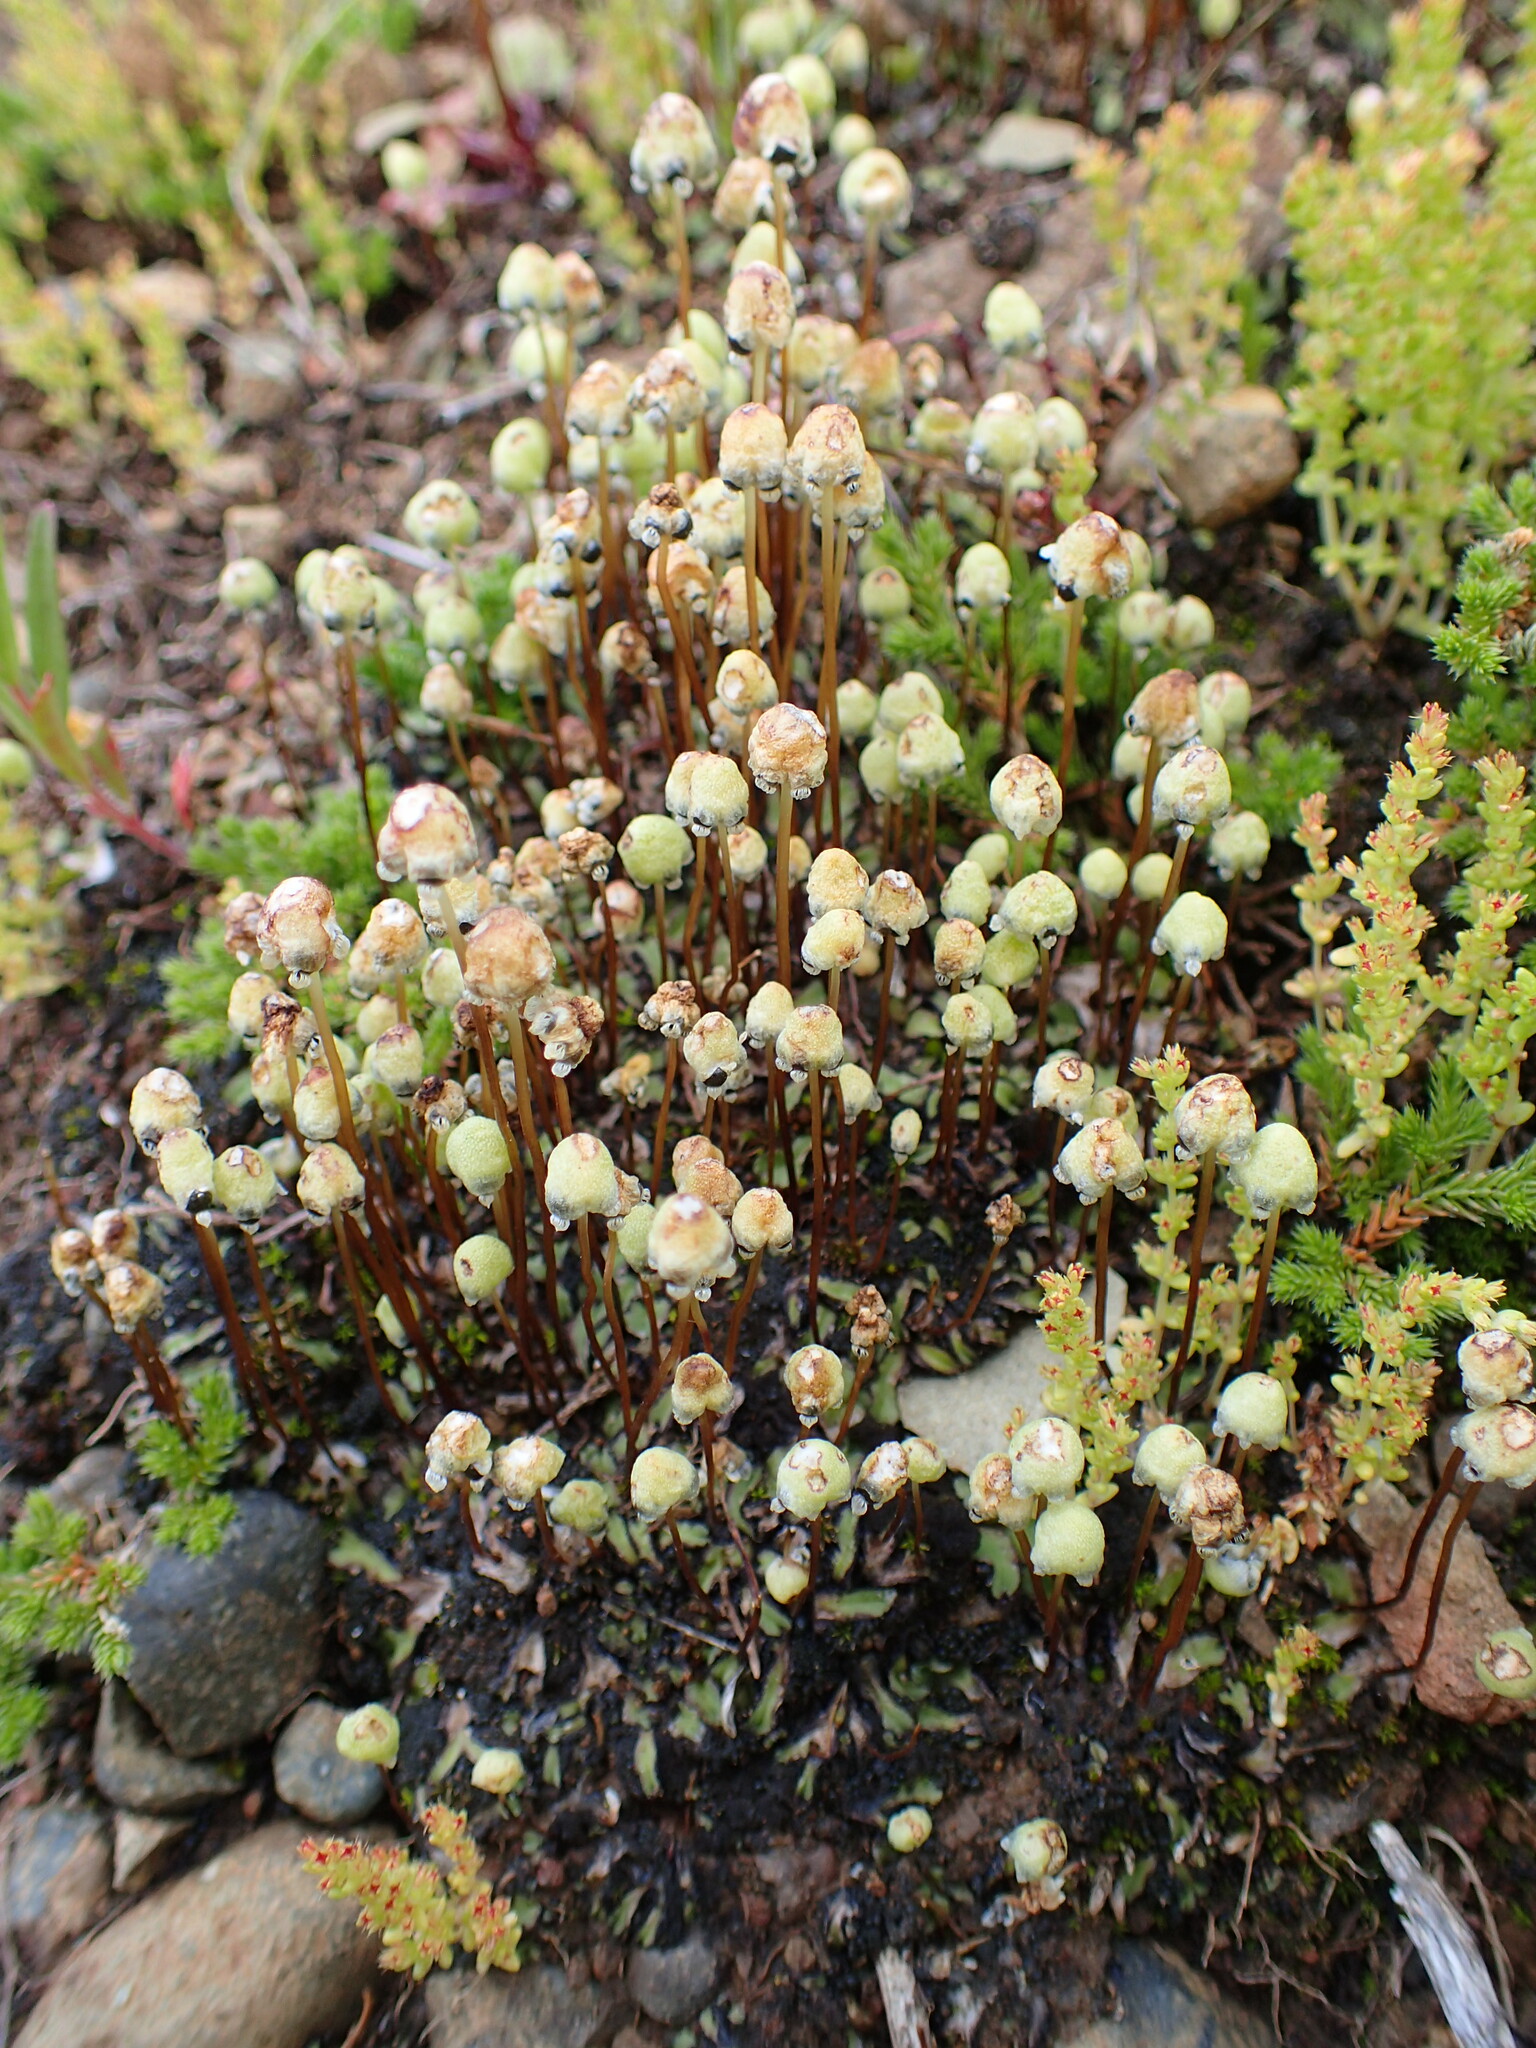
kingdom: Plantae
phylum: Marchantiophyta
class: Marchantiopsida
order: Marchantiales
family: Aytoniaceae
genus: Asterella
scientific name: Asterella palmeri
